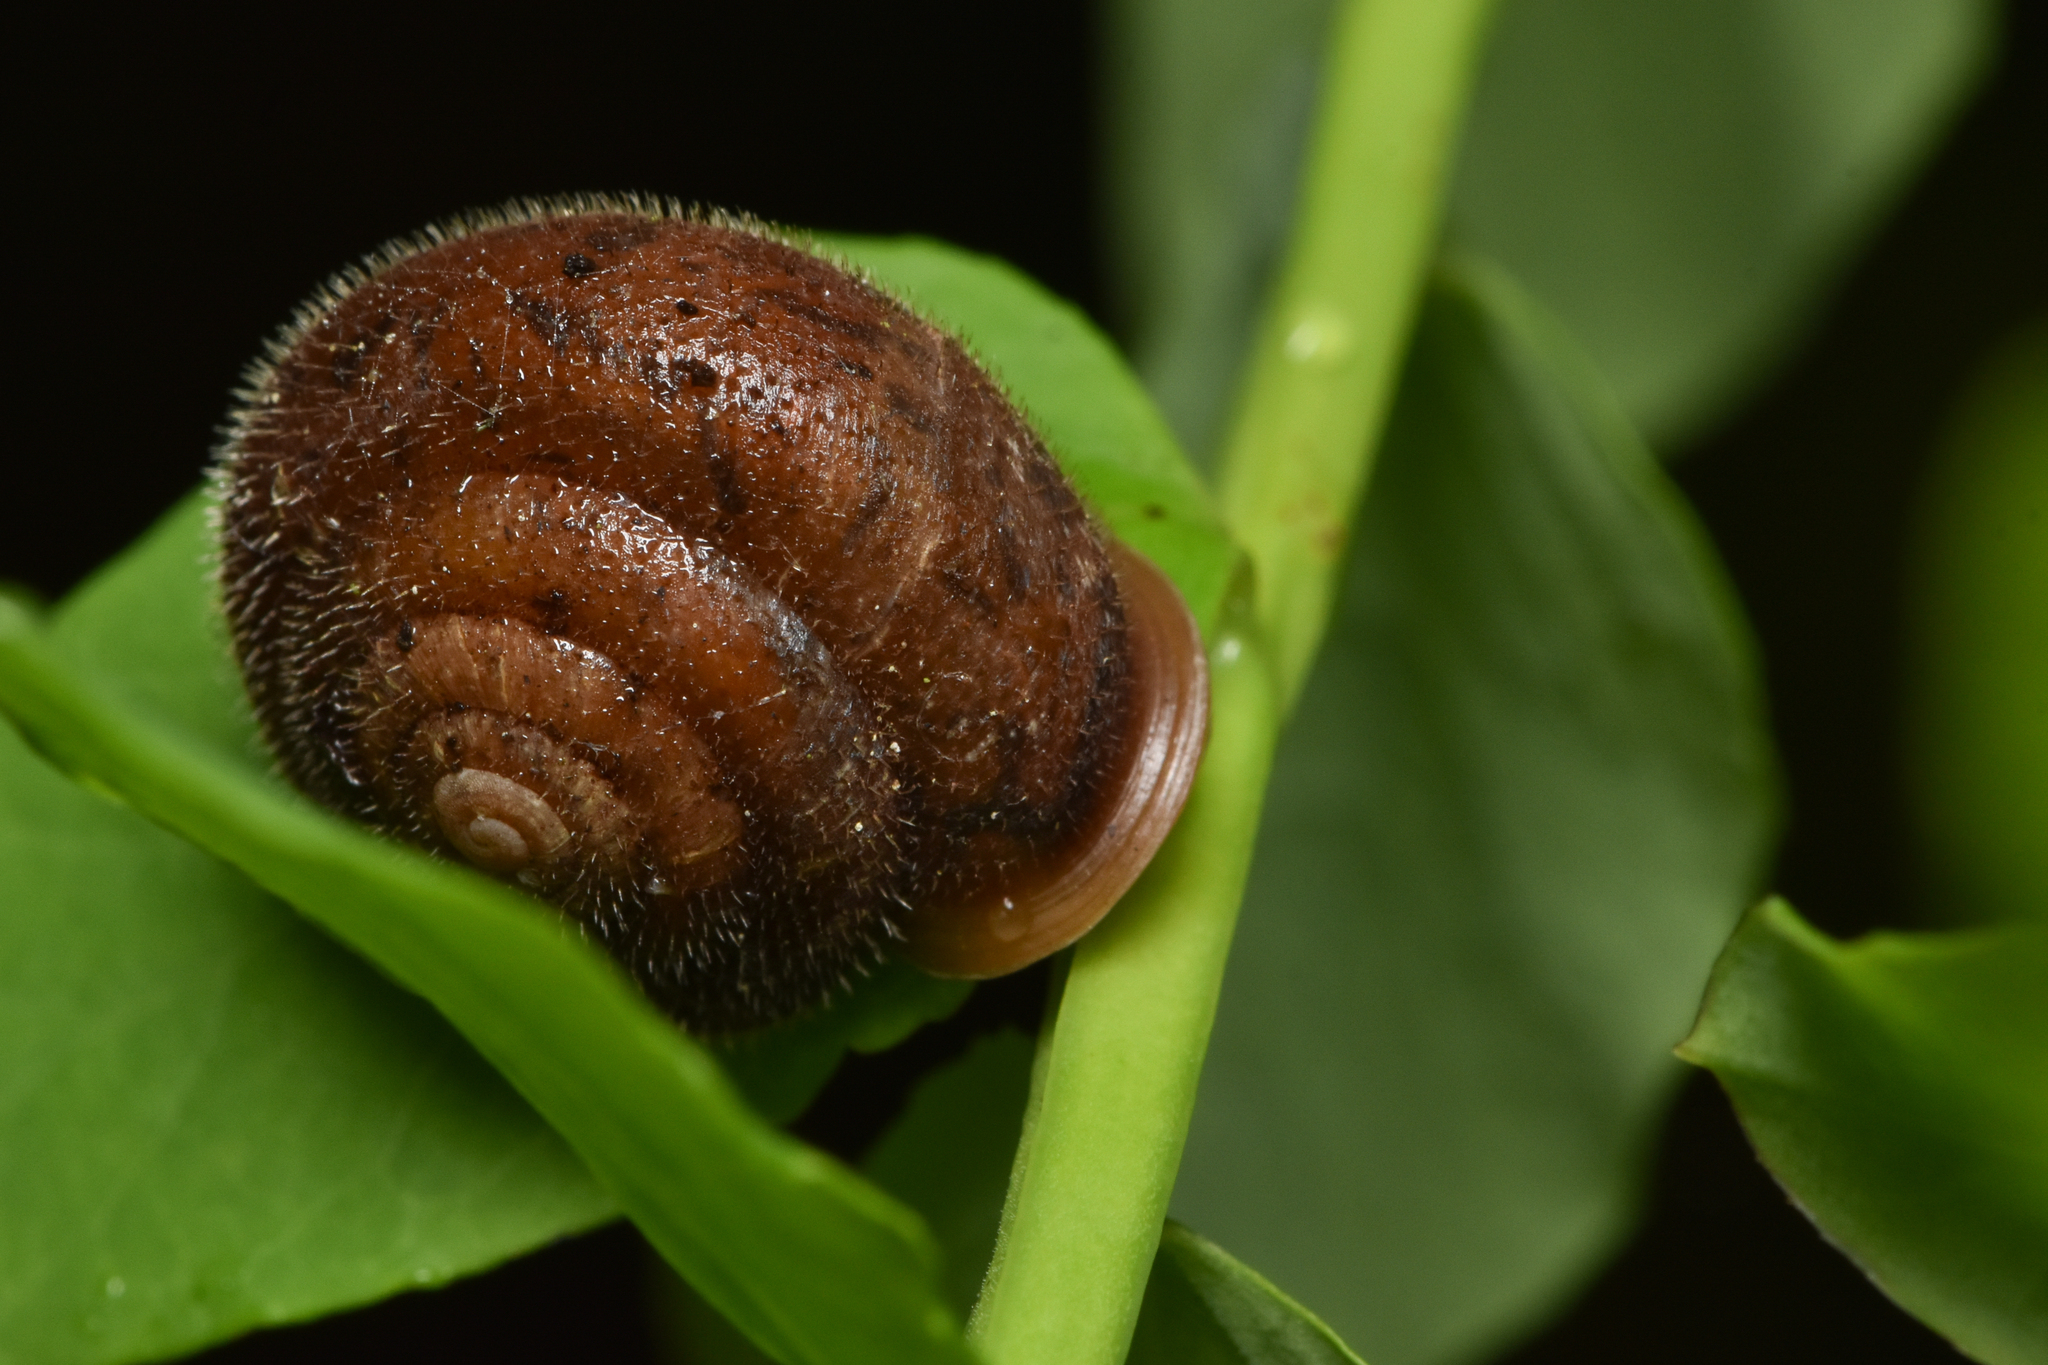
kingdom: Animalia
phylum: Mollusca
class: Gastropoda
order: Stylommatophora
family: Polygyridae
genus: Vespericola
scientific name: Vespericola columbianus
